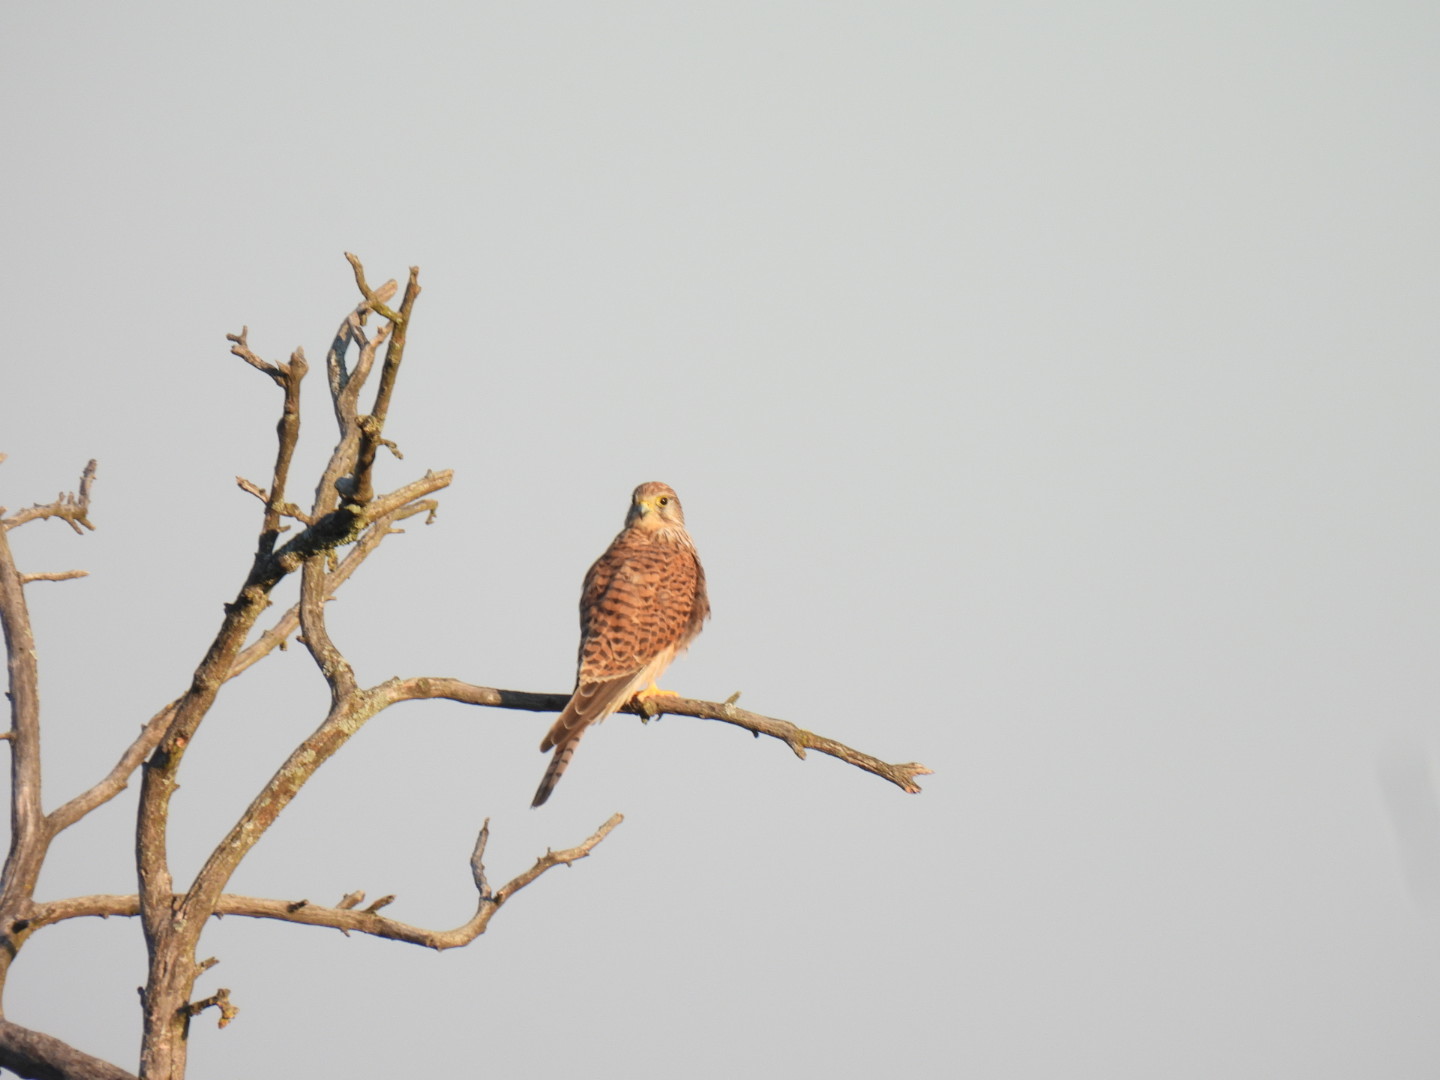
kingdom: Animalia
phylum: Chordata
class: Aves
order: Falconiformes
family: Falconidae
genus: Falco
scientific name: Falco tinnunculus
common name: Common kestrel
